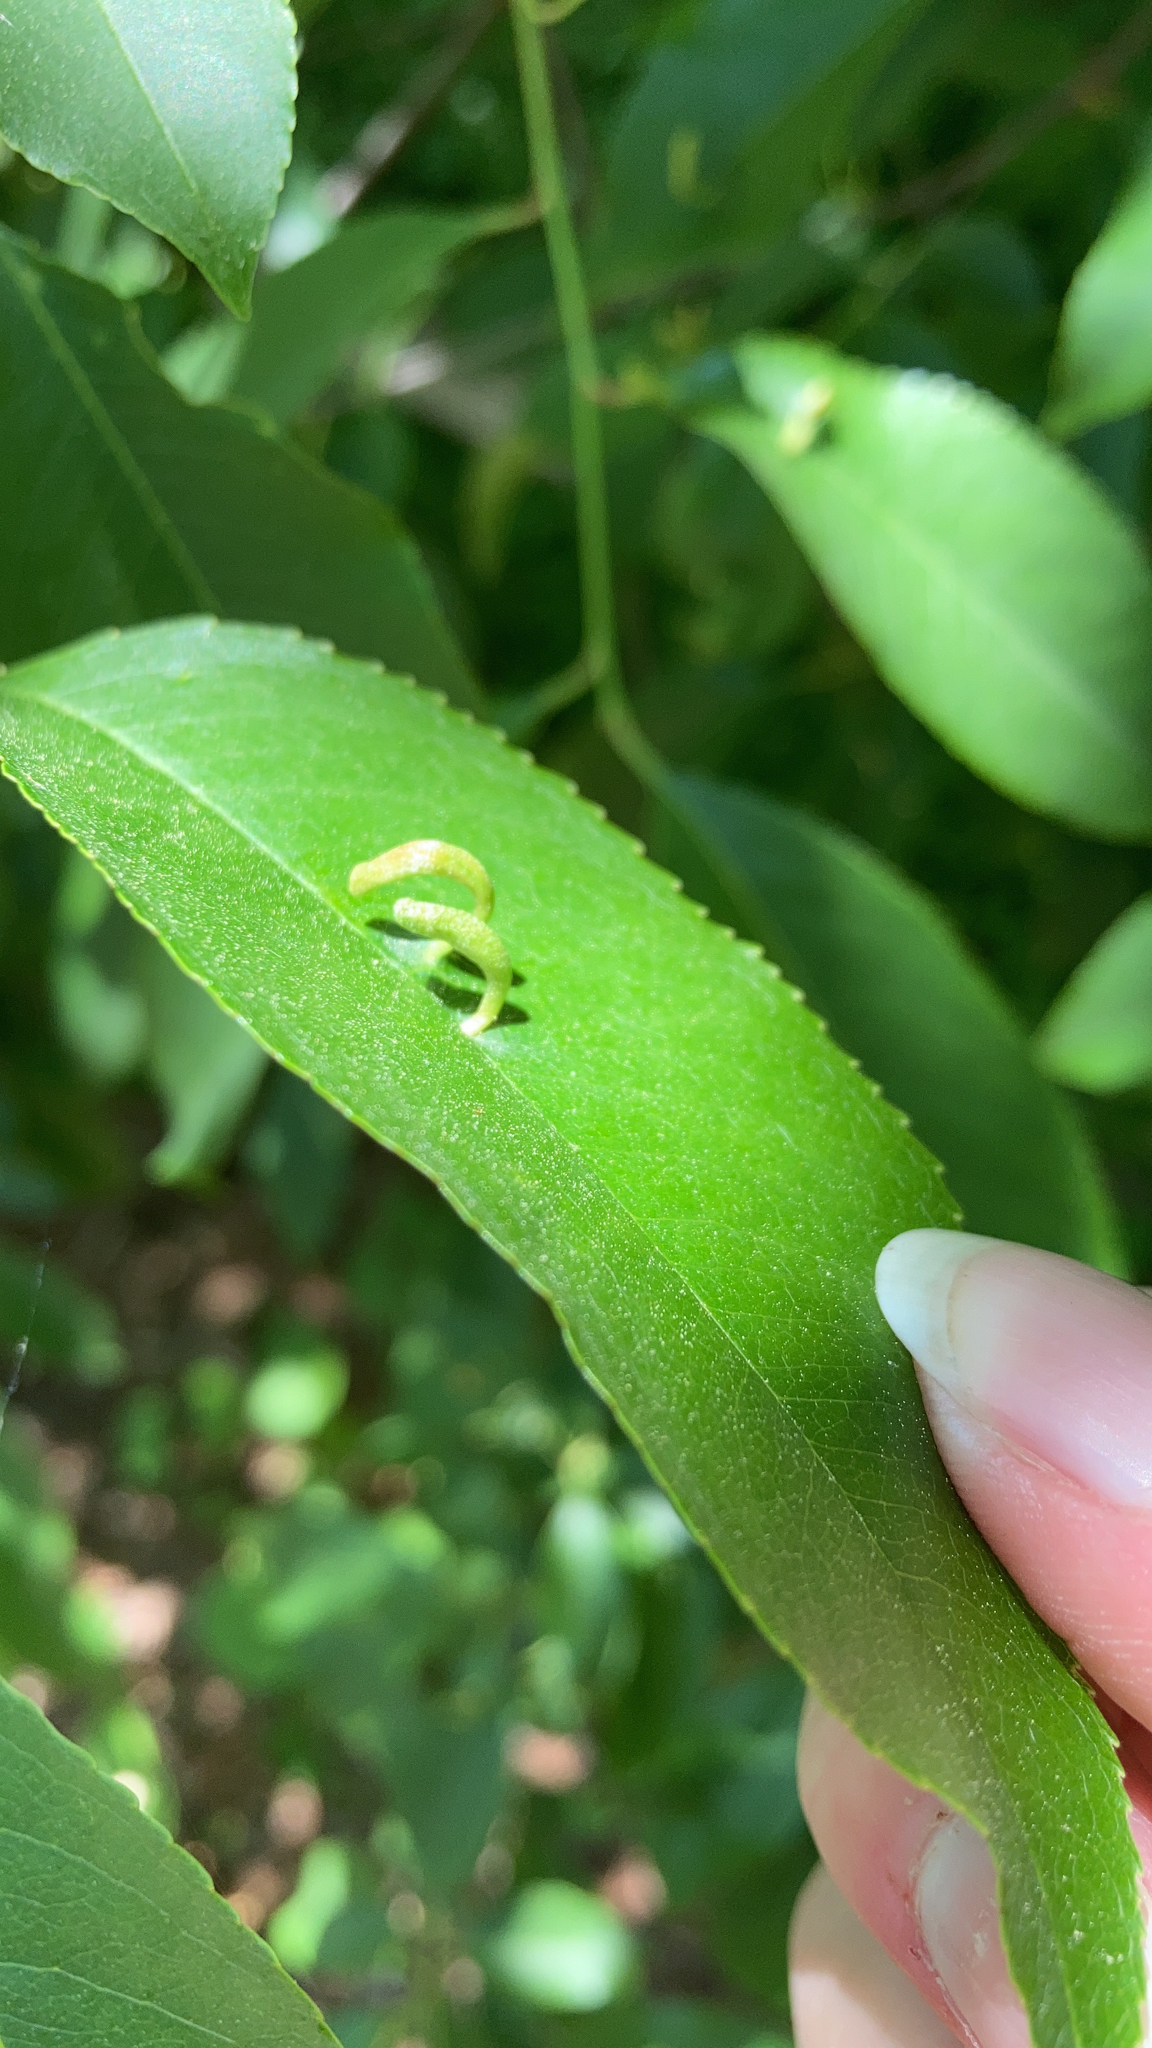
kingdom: Animalia
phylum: Arthropoda
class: Arachnida
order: Trombidiformes
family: Eriophyidae
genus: Eriophyes
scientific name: Eriophyes
